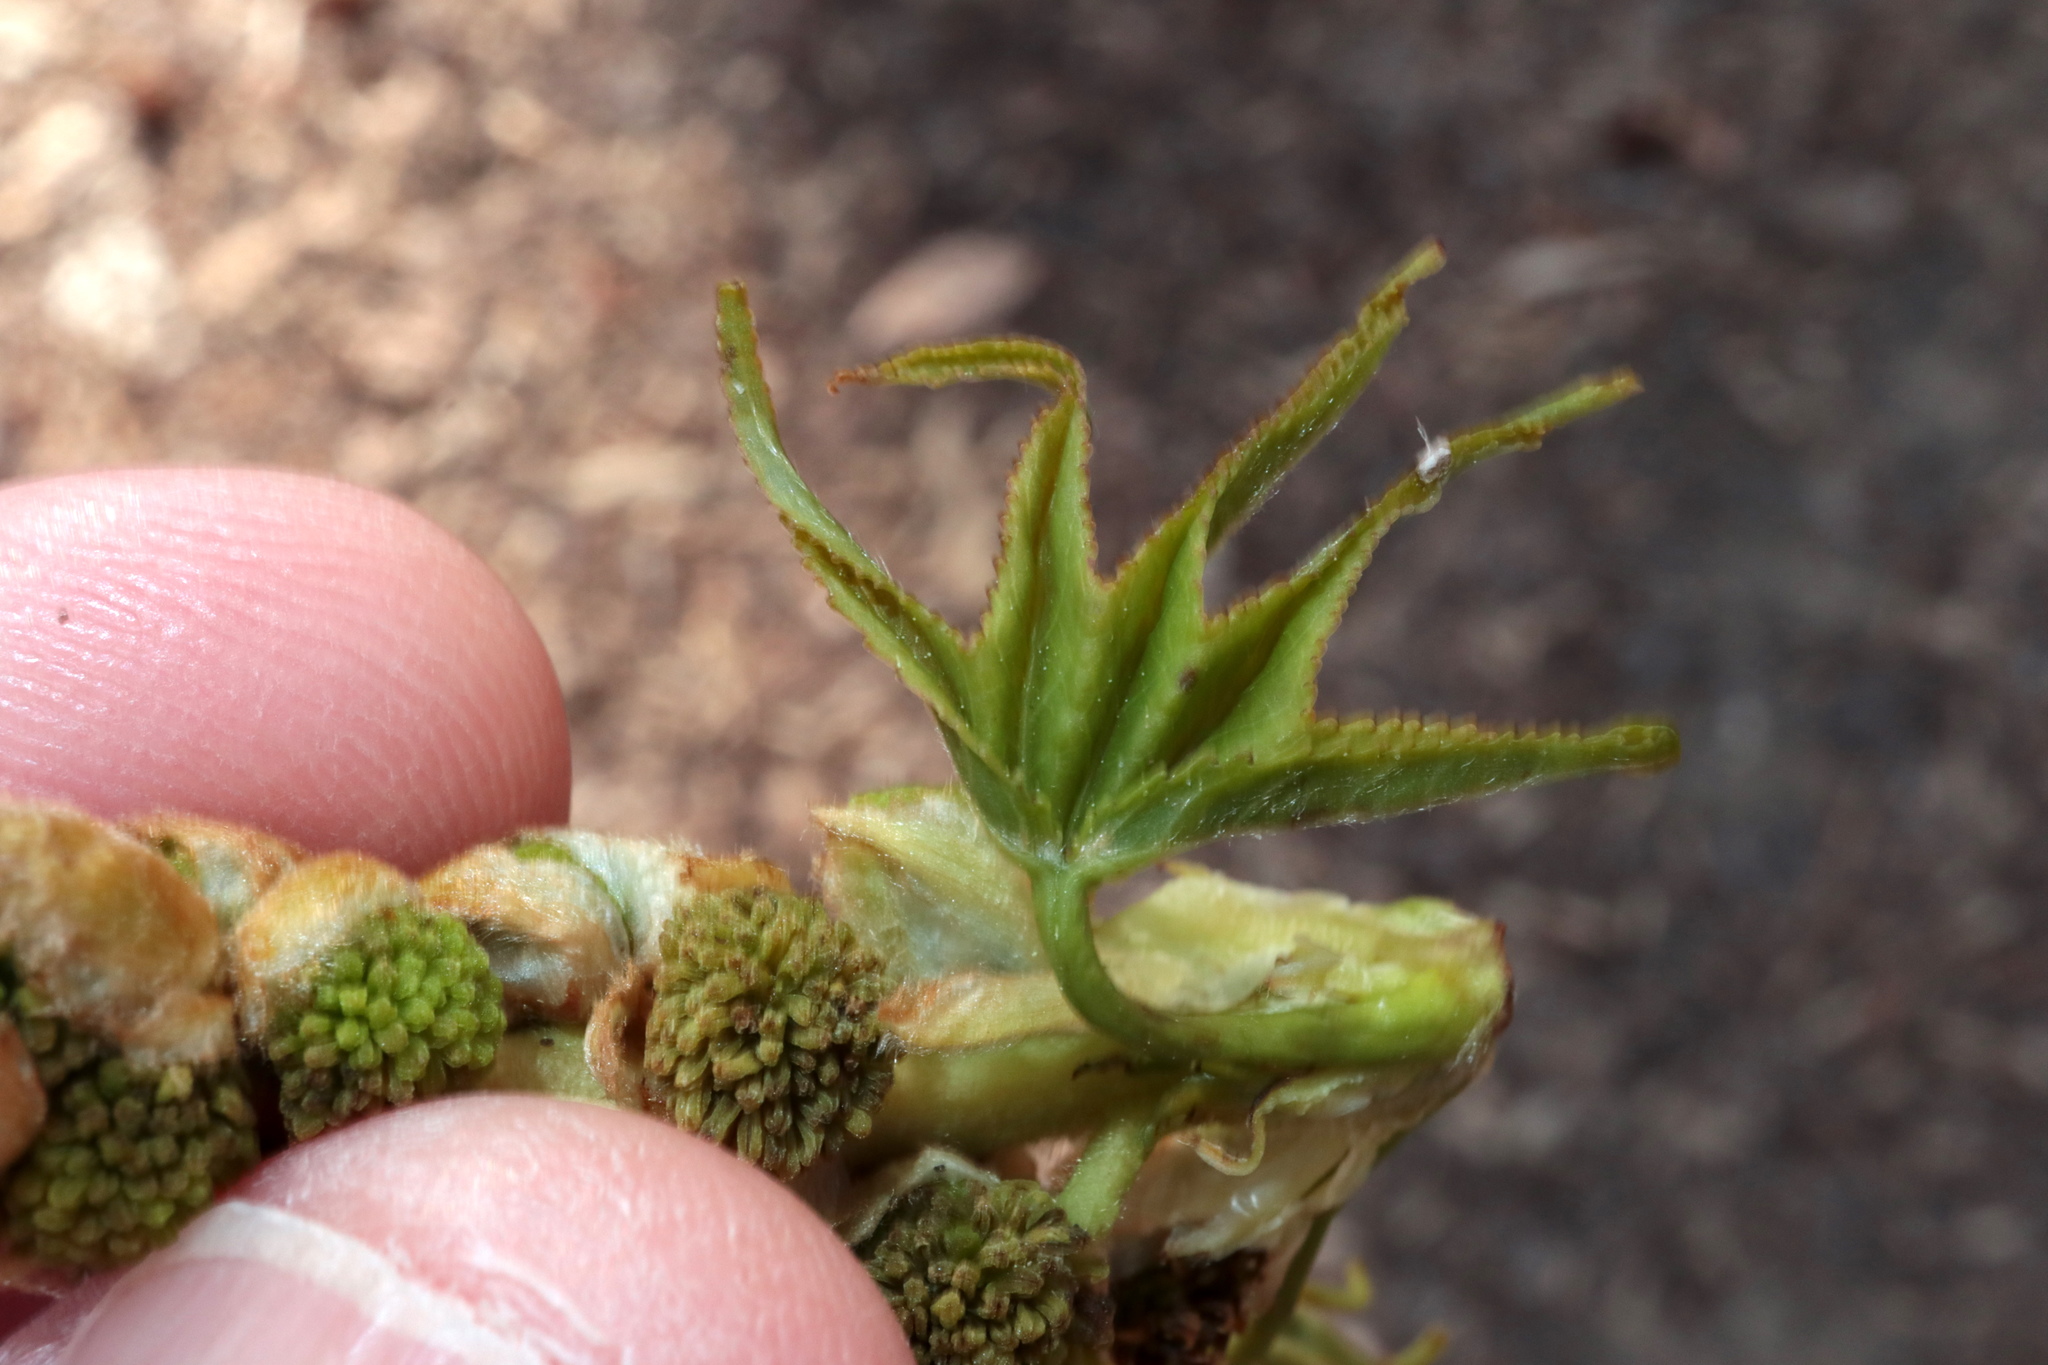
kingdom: Plantae
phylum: Tracheophyta
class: Magnoliopsida
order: Saxifragales
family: Altingiaceae
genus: Liquidambar
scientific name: Liquidambar styraciflua
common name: Sweet gum
